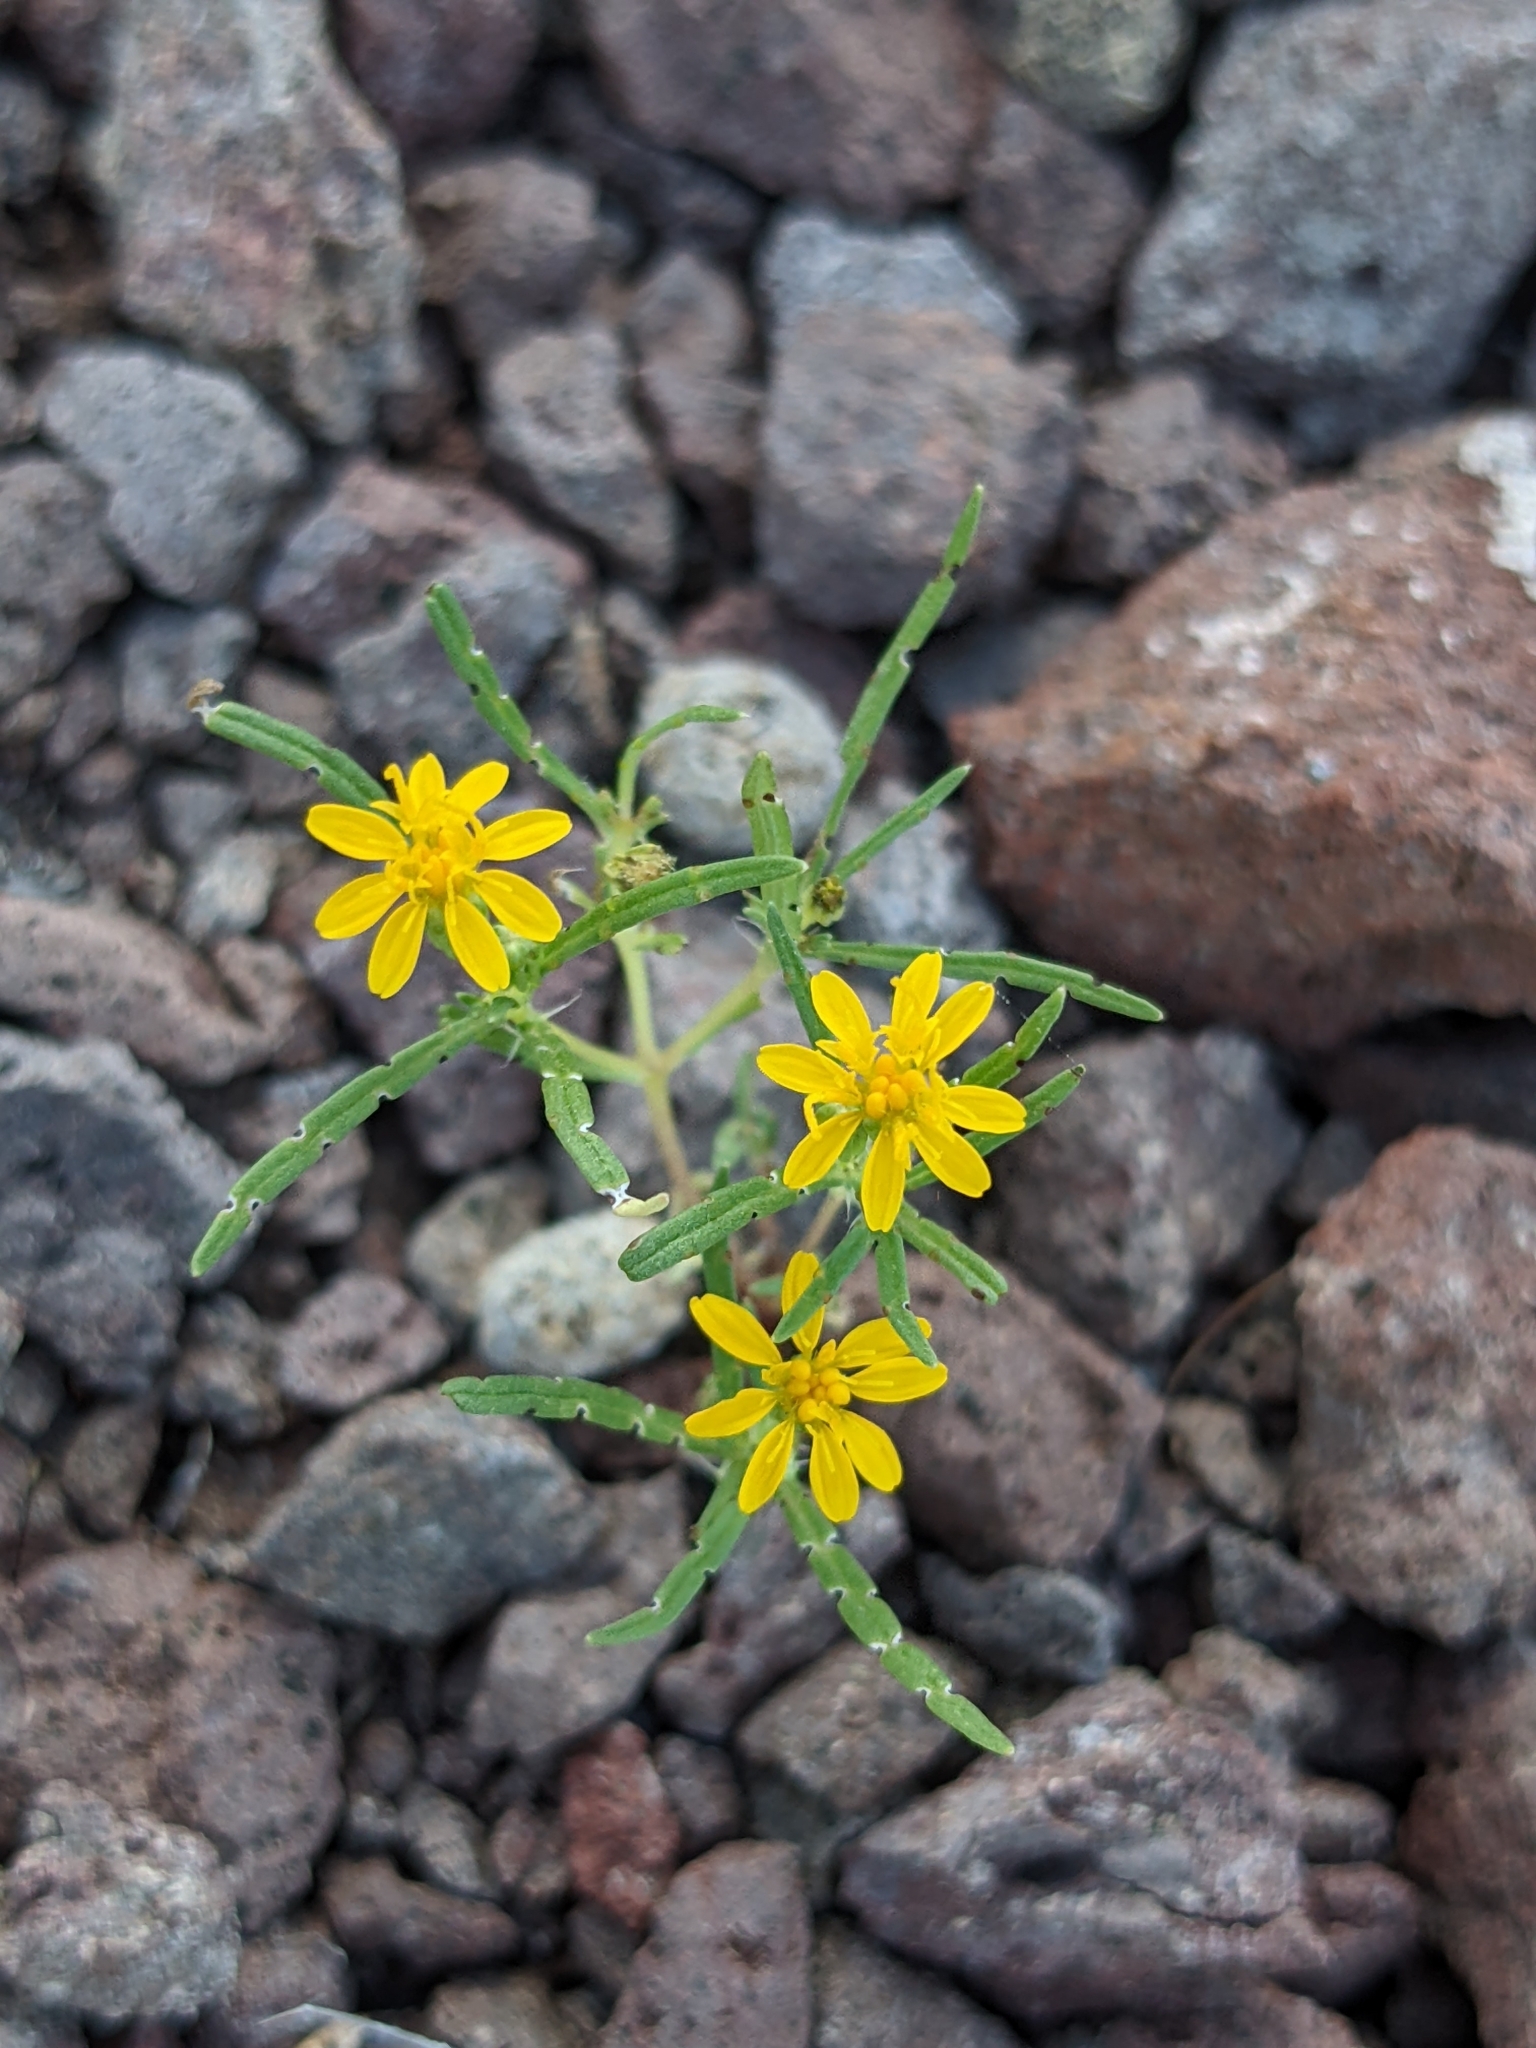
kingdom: Plantae
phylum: Tracheophyta
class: Magnoliopsida
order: Asterales
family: Asteraceae
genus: Pectis
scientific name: Pectis papposa
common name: Many-bristle chinchweed
